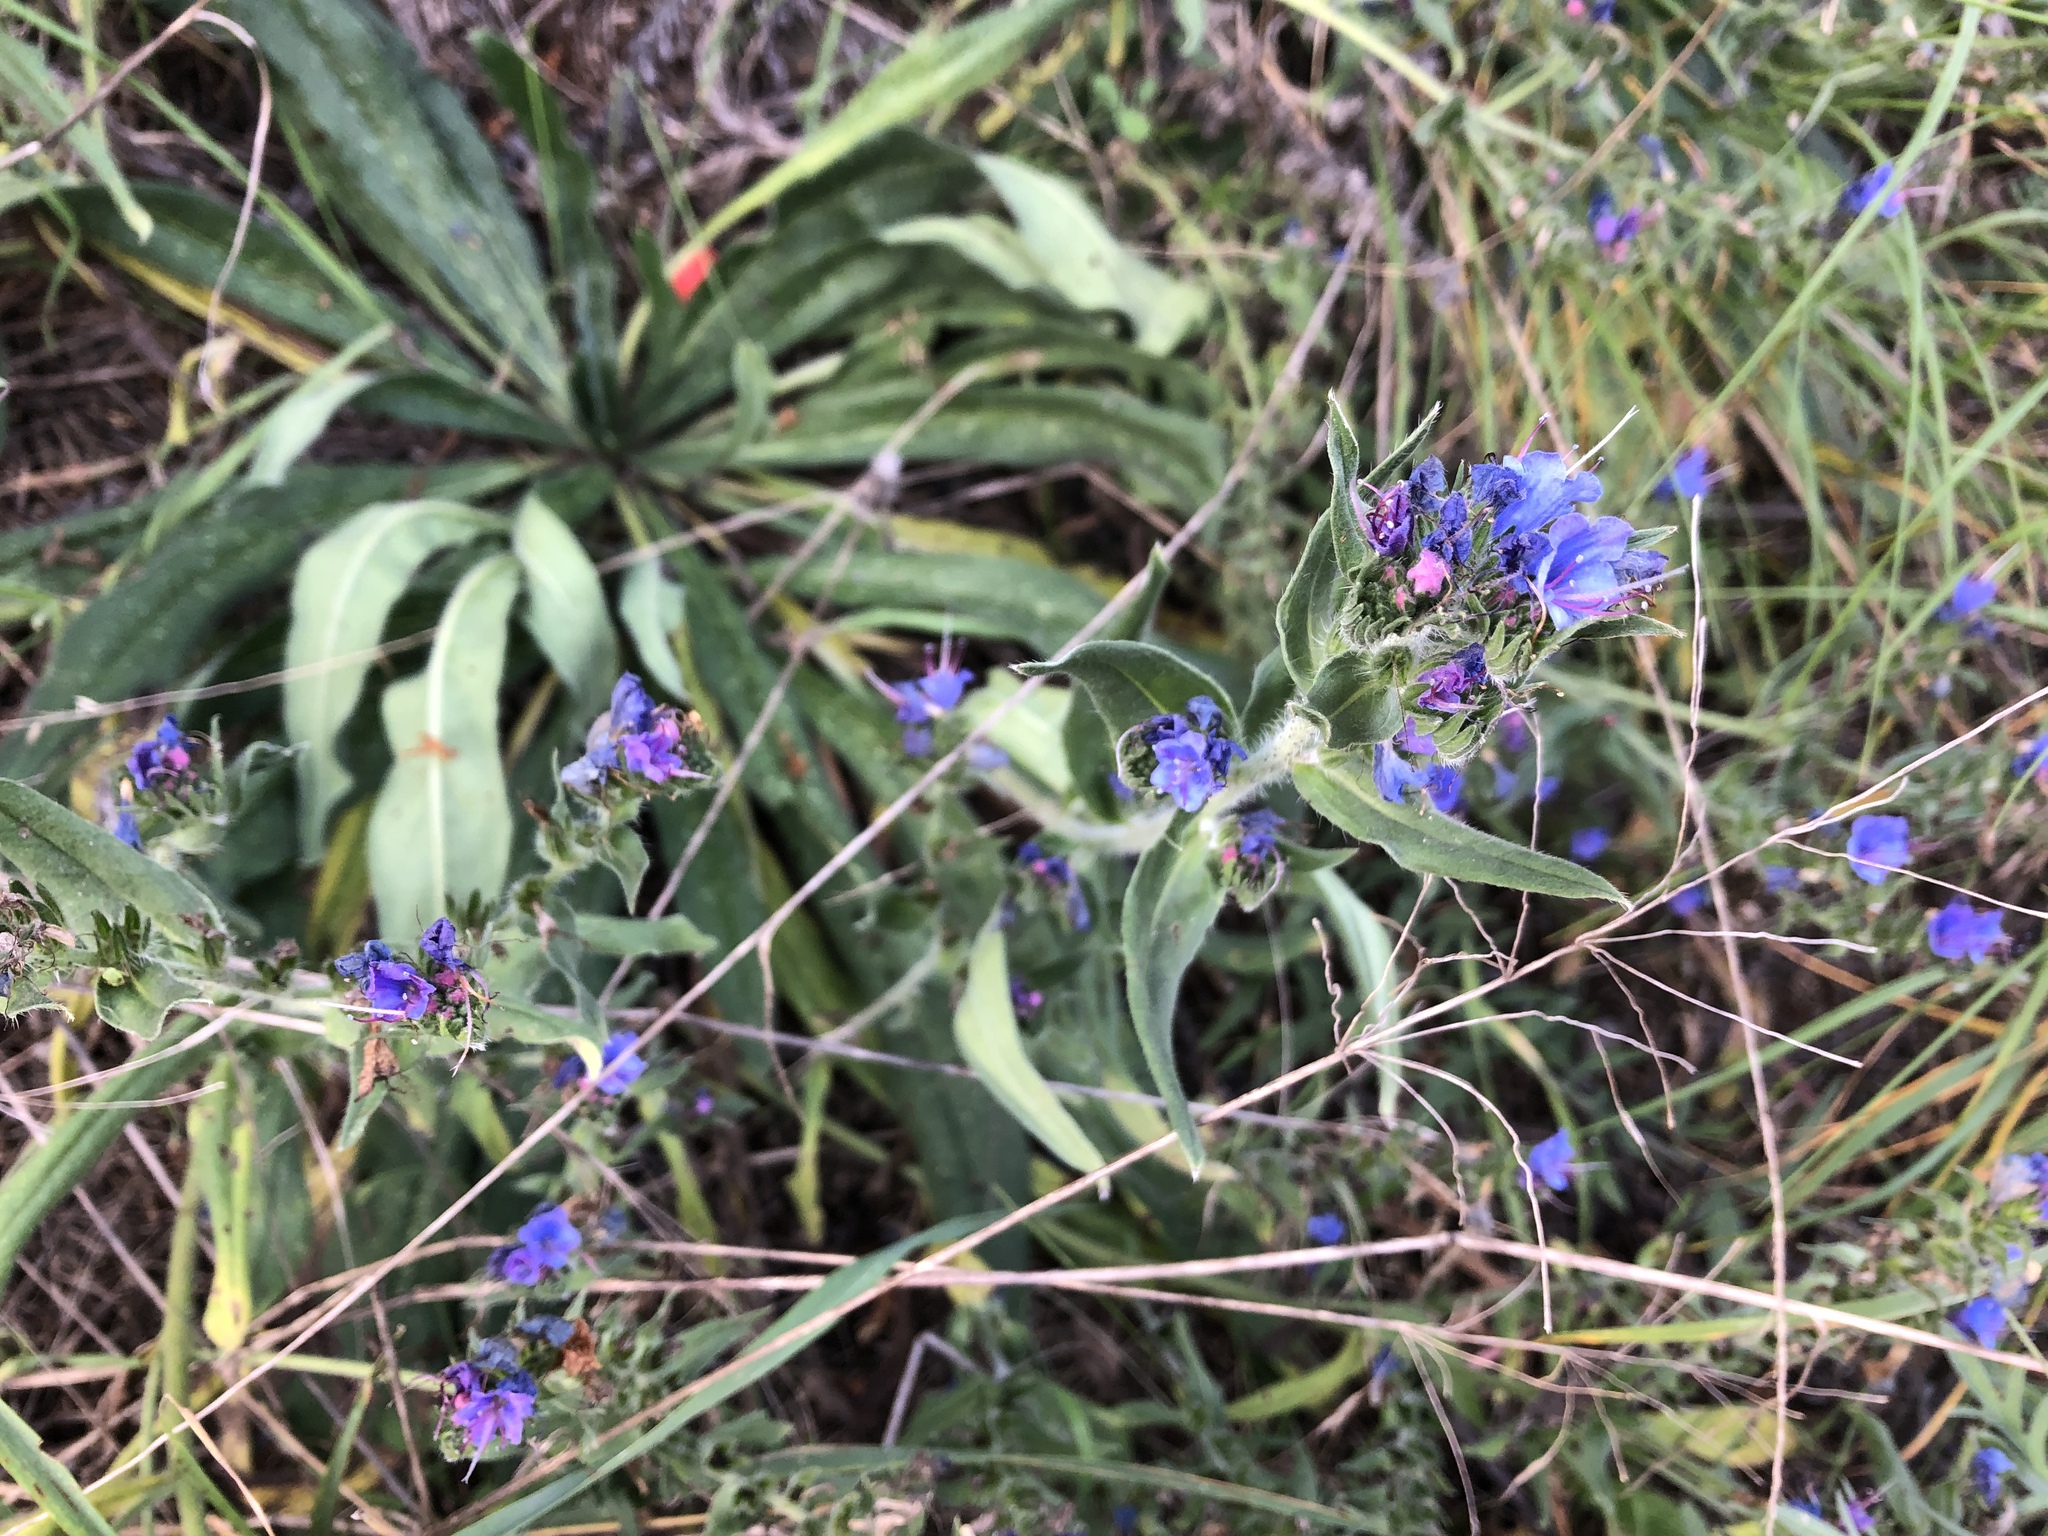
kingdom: Plantae
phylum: Tracheophyta
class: Magnoliopsida
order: Boraginales
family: Boraginaceae
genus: Echium
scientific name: Echium vulgare
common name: Common viper's bugloss
